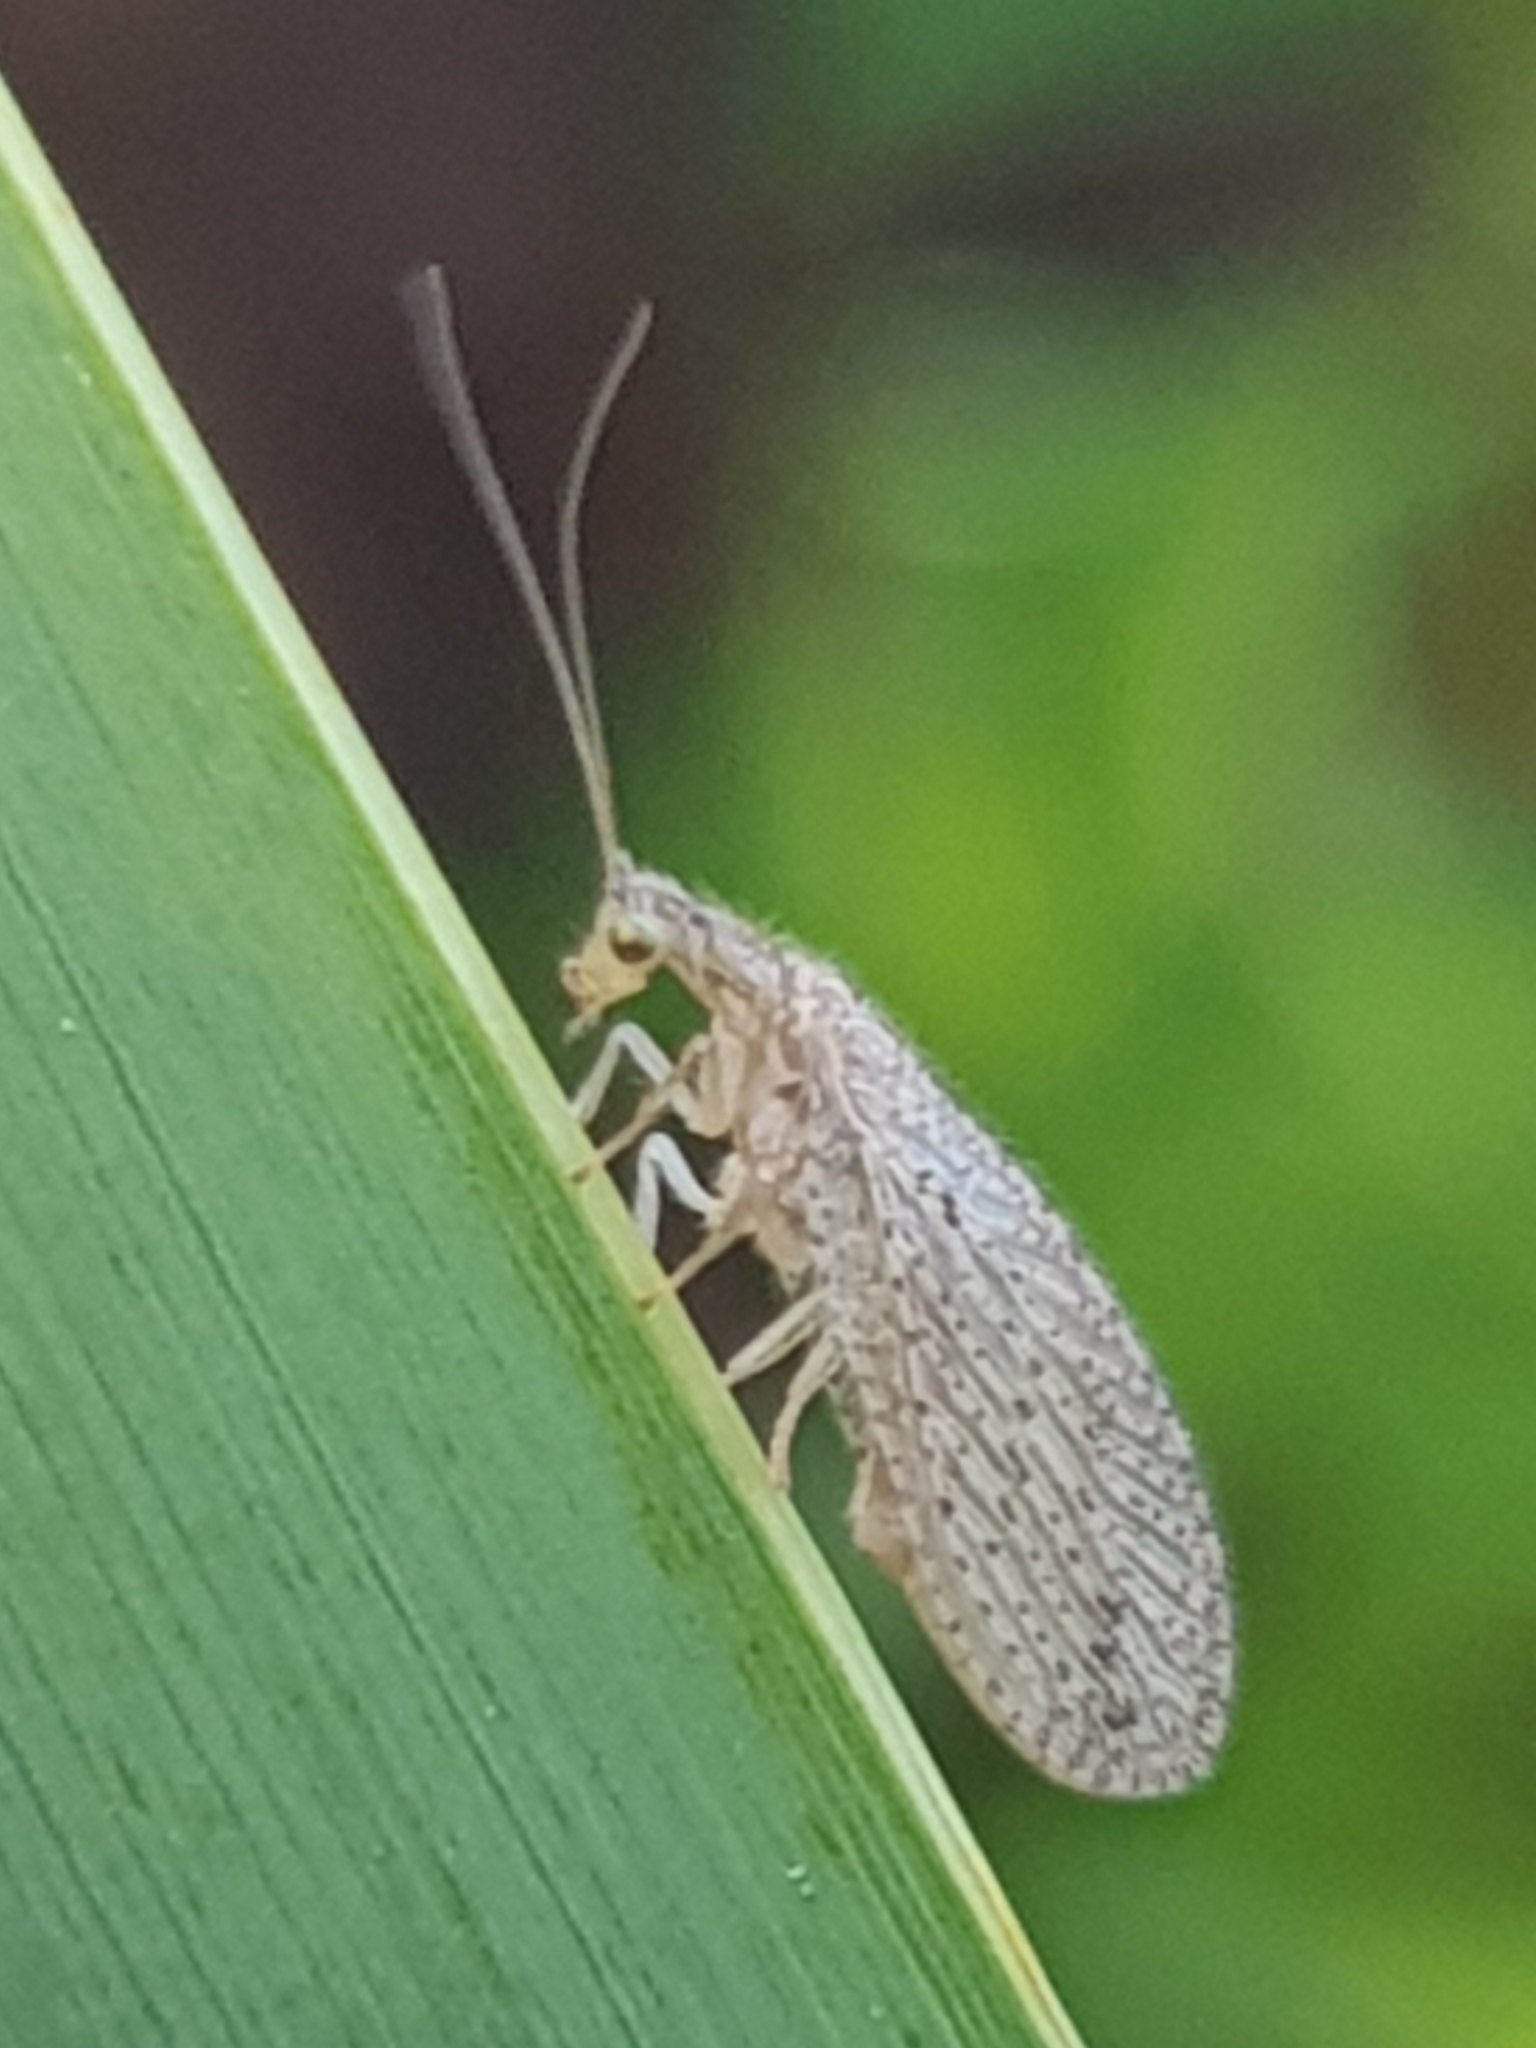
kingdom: Animalia
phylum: Arthropoda
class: Insecta
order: Neuroptera
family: Hemerobiidae
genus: Micromus
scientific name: Micromus tasmaniae
